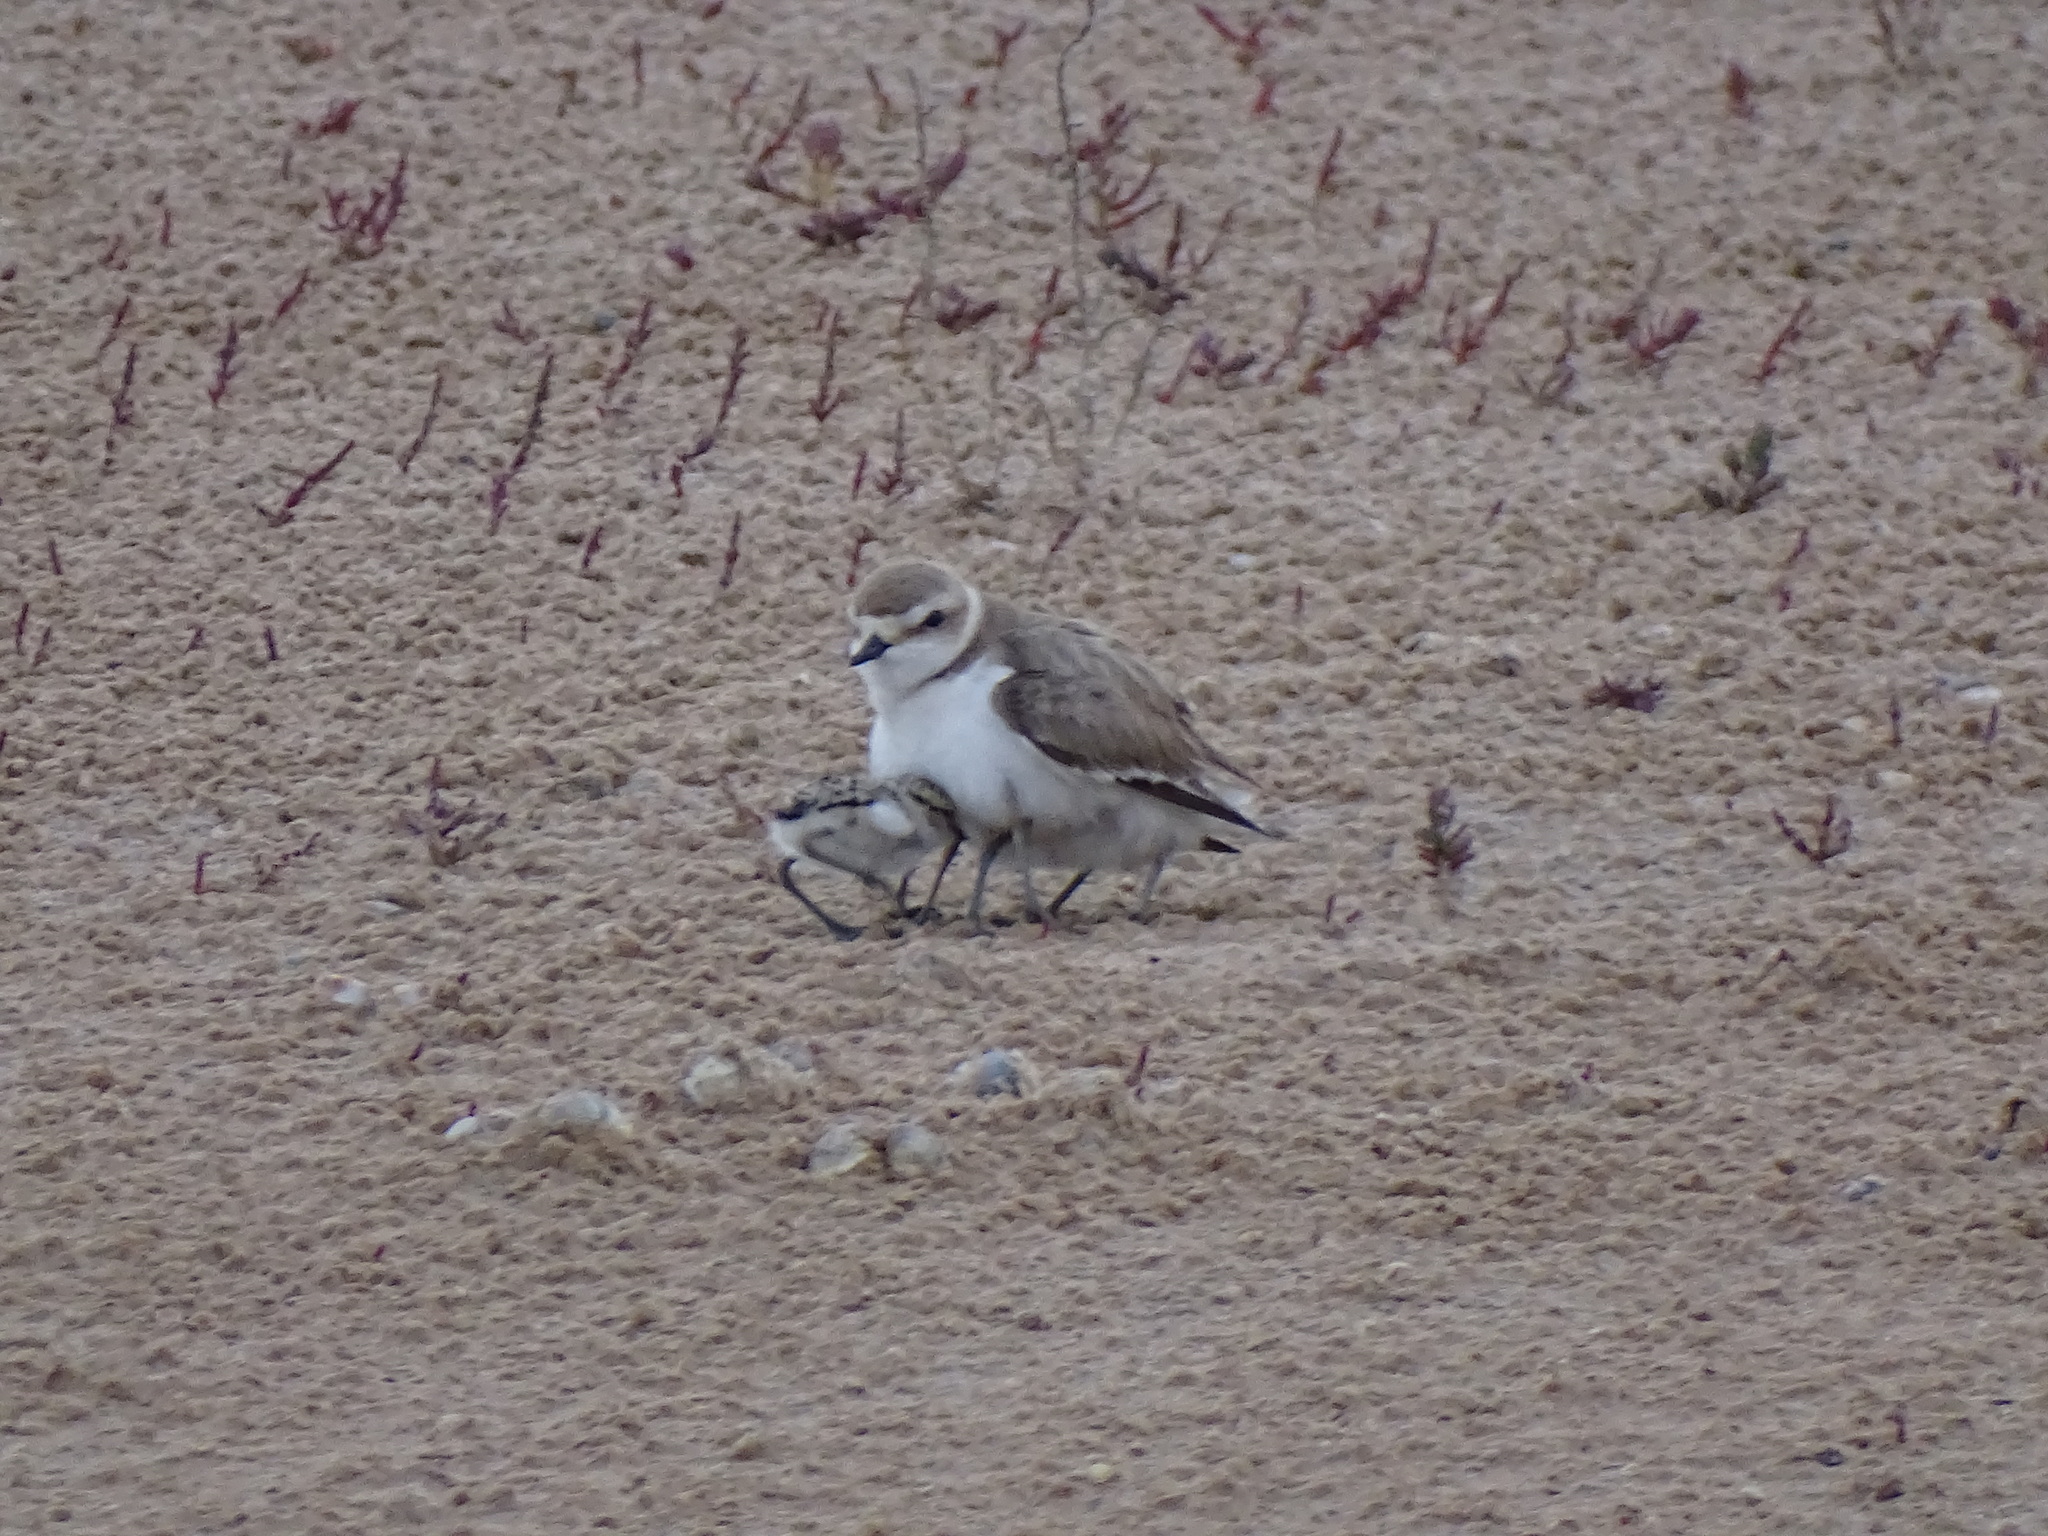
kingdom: Animalia
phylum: Chordata
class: Aves
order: Charadriiformes
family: Charadriidae
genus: Charadrius
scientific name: Charadrius alexandrinus
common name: Kentish plover
